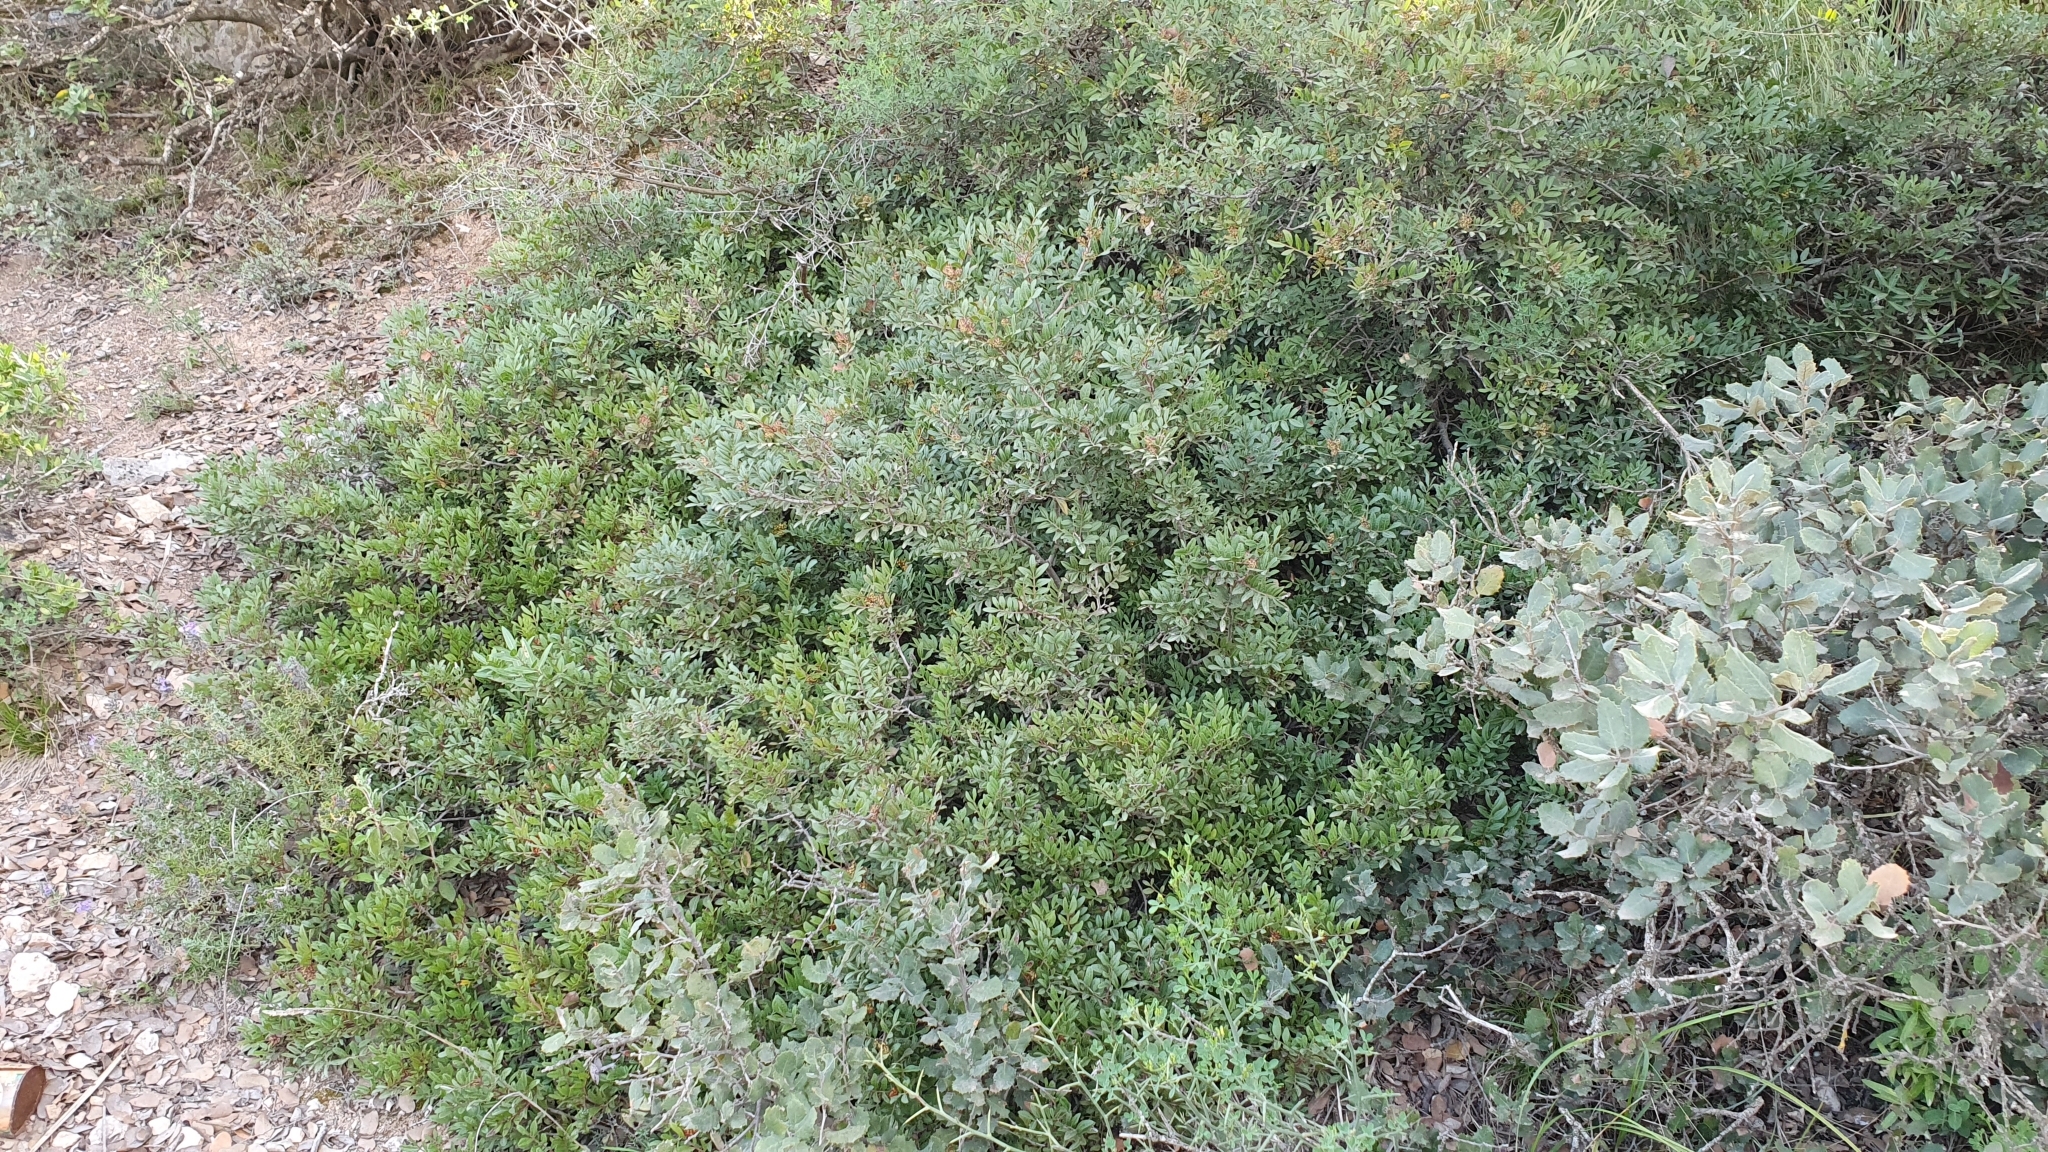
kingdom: Plantae
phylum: Tracheophyta
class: Magnoliopsida
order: Sapindales
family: Anacardiaceae
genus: Pistacia
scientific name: Pistacia lentiscus
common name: Lentisk
